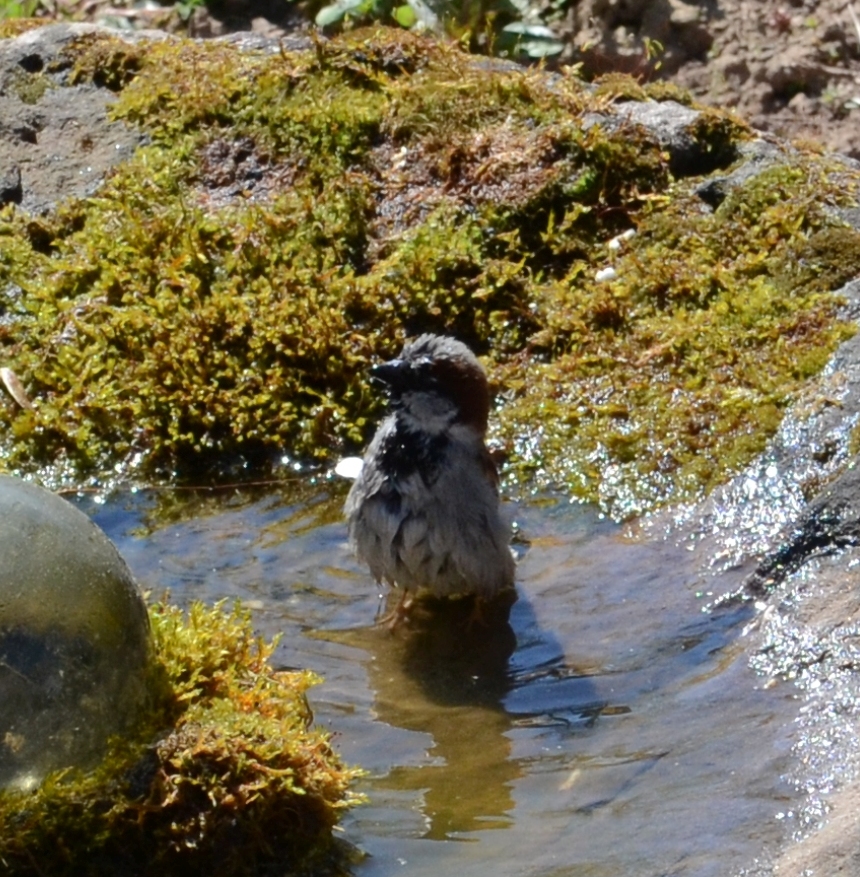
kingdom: Animalia
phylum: Chordata
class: Aves
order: Passeriformes
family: Passeridae
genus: Passer
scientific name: Passer domesticus
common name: House sparrow
